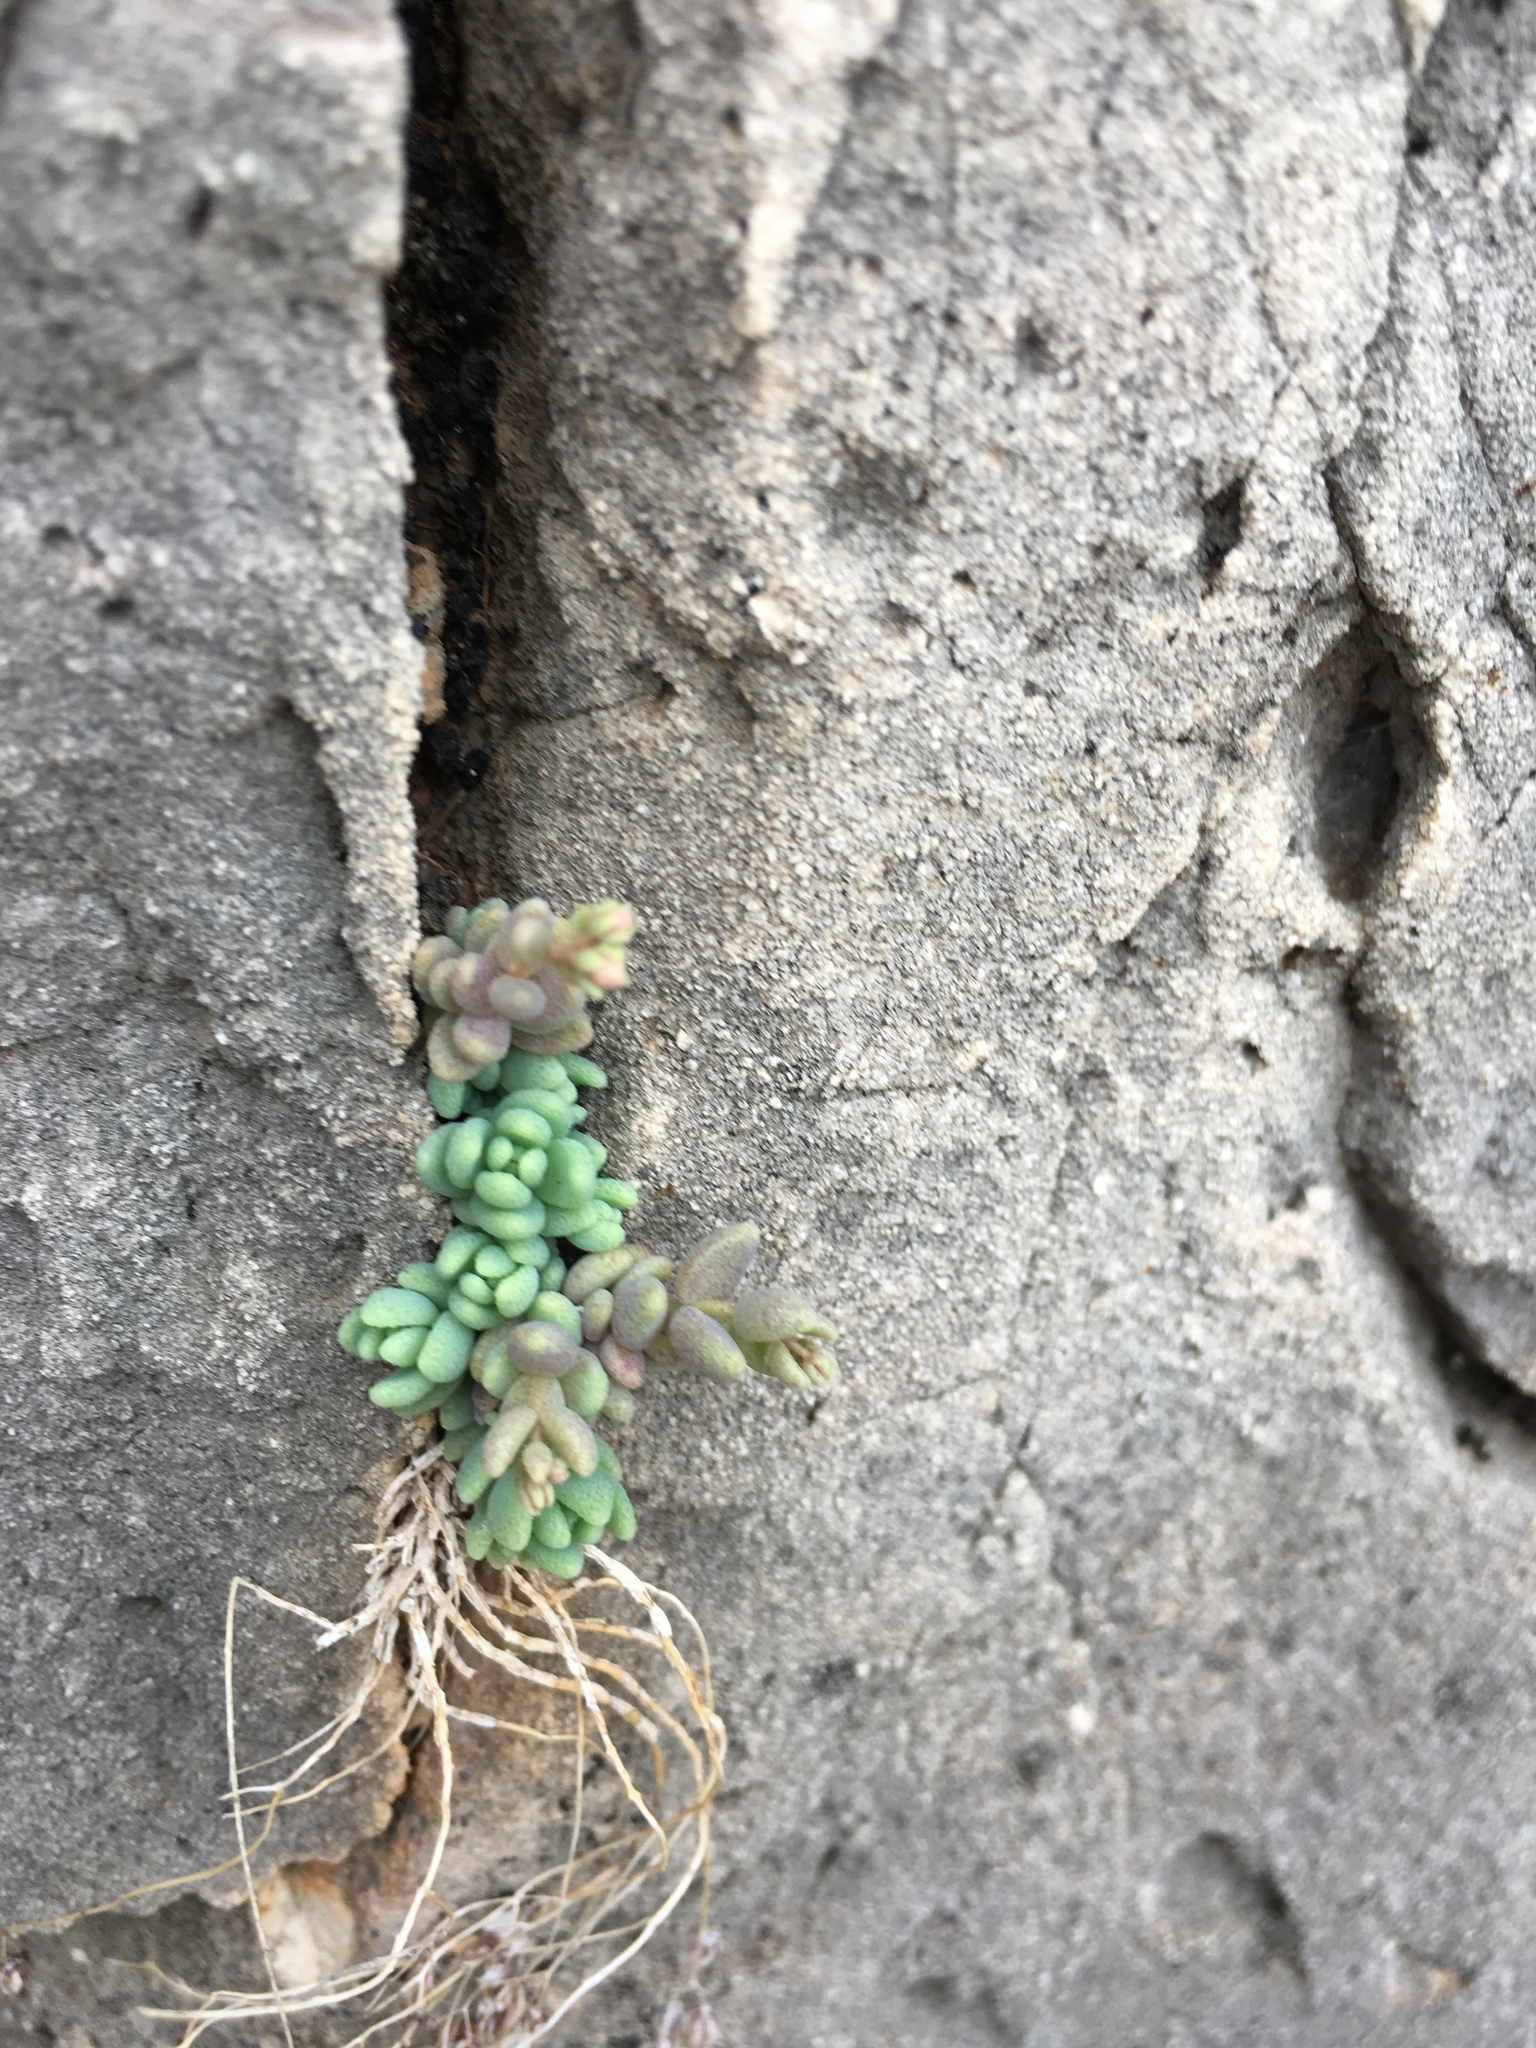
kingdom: Plantae
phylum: Tracheophyta
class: Magnoliopsida
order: Saxifragales
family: Crassulaceae
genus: Sedum
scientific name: Sedum dasyphyllum
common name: Thick-leaf stonecrop
